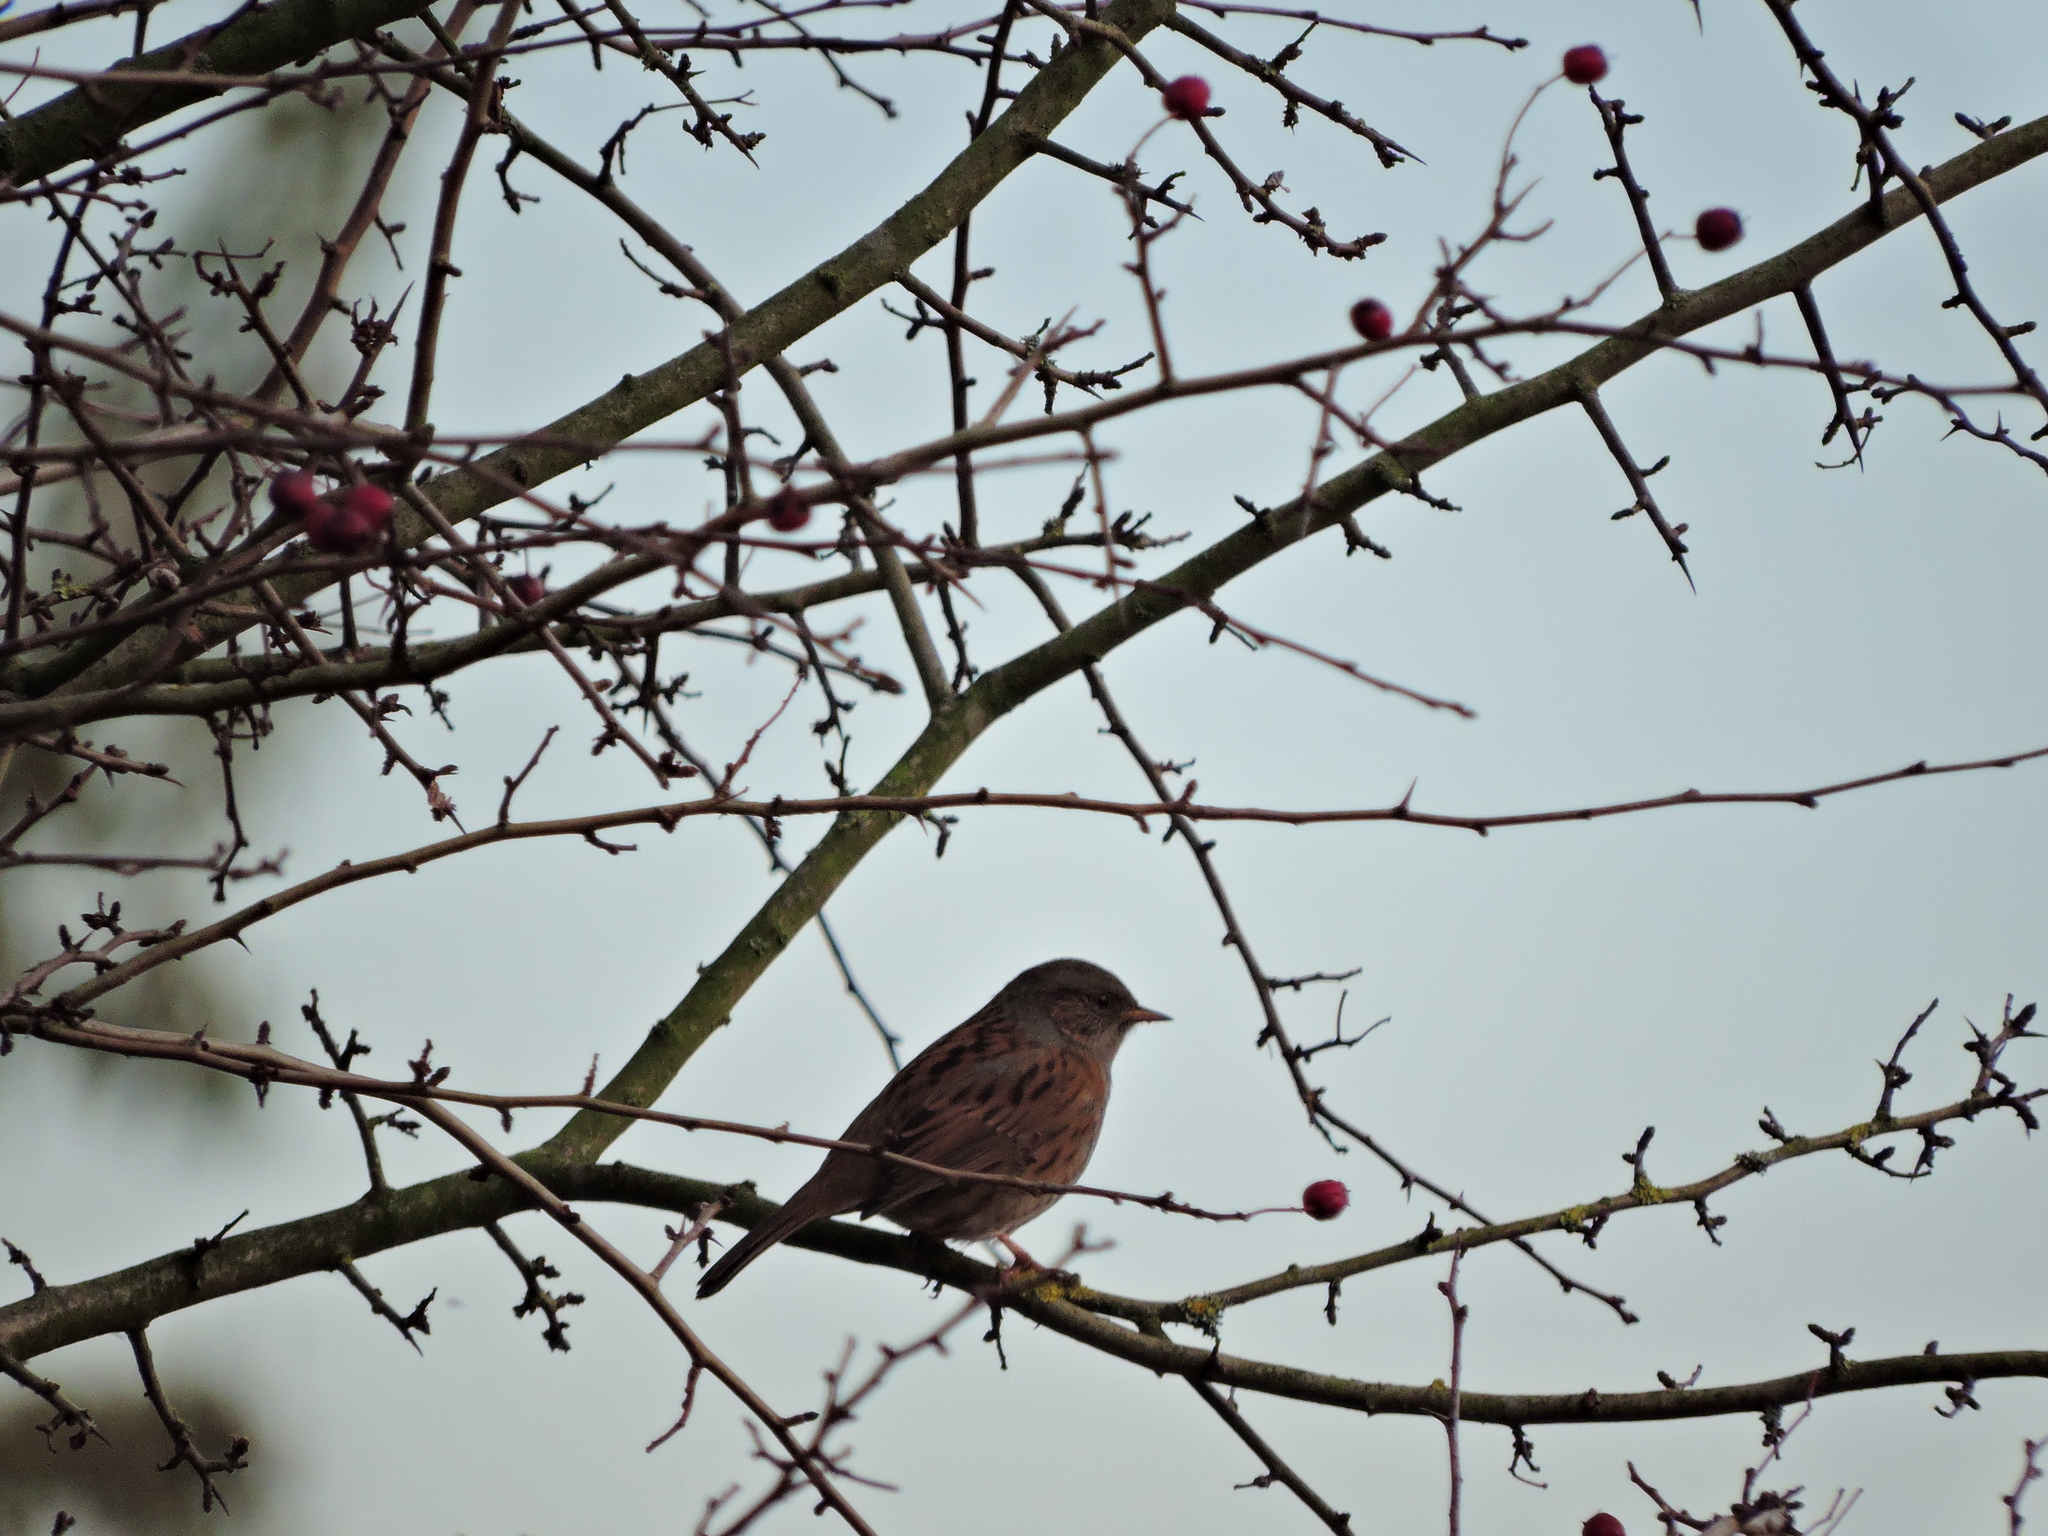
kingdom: Animalia
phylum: Chordata
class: Aves
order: Passeriformes
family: Prunellidae
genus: Prunella
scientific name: Prunella modularis
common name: Dunnock
